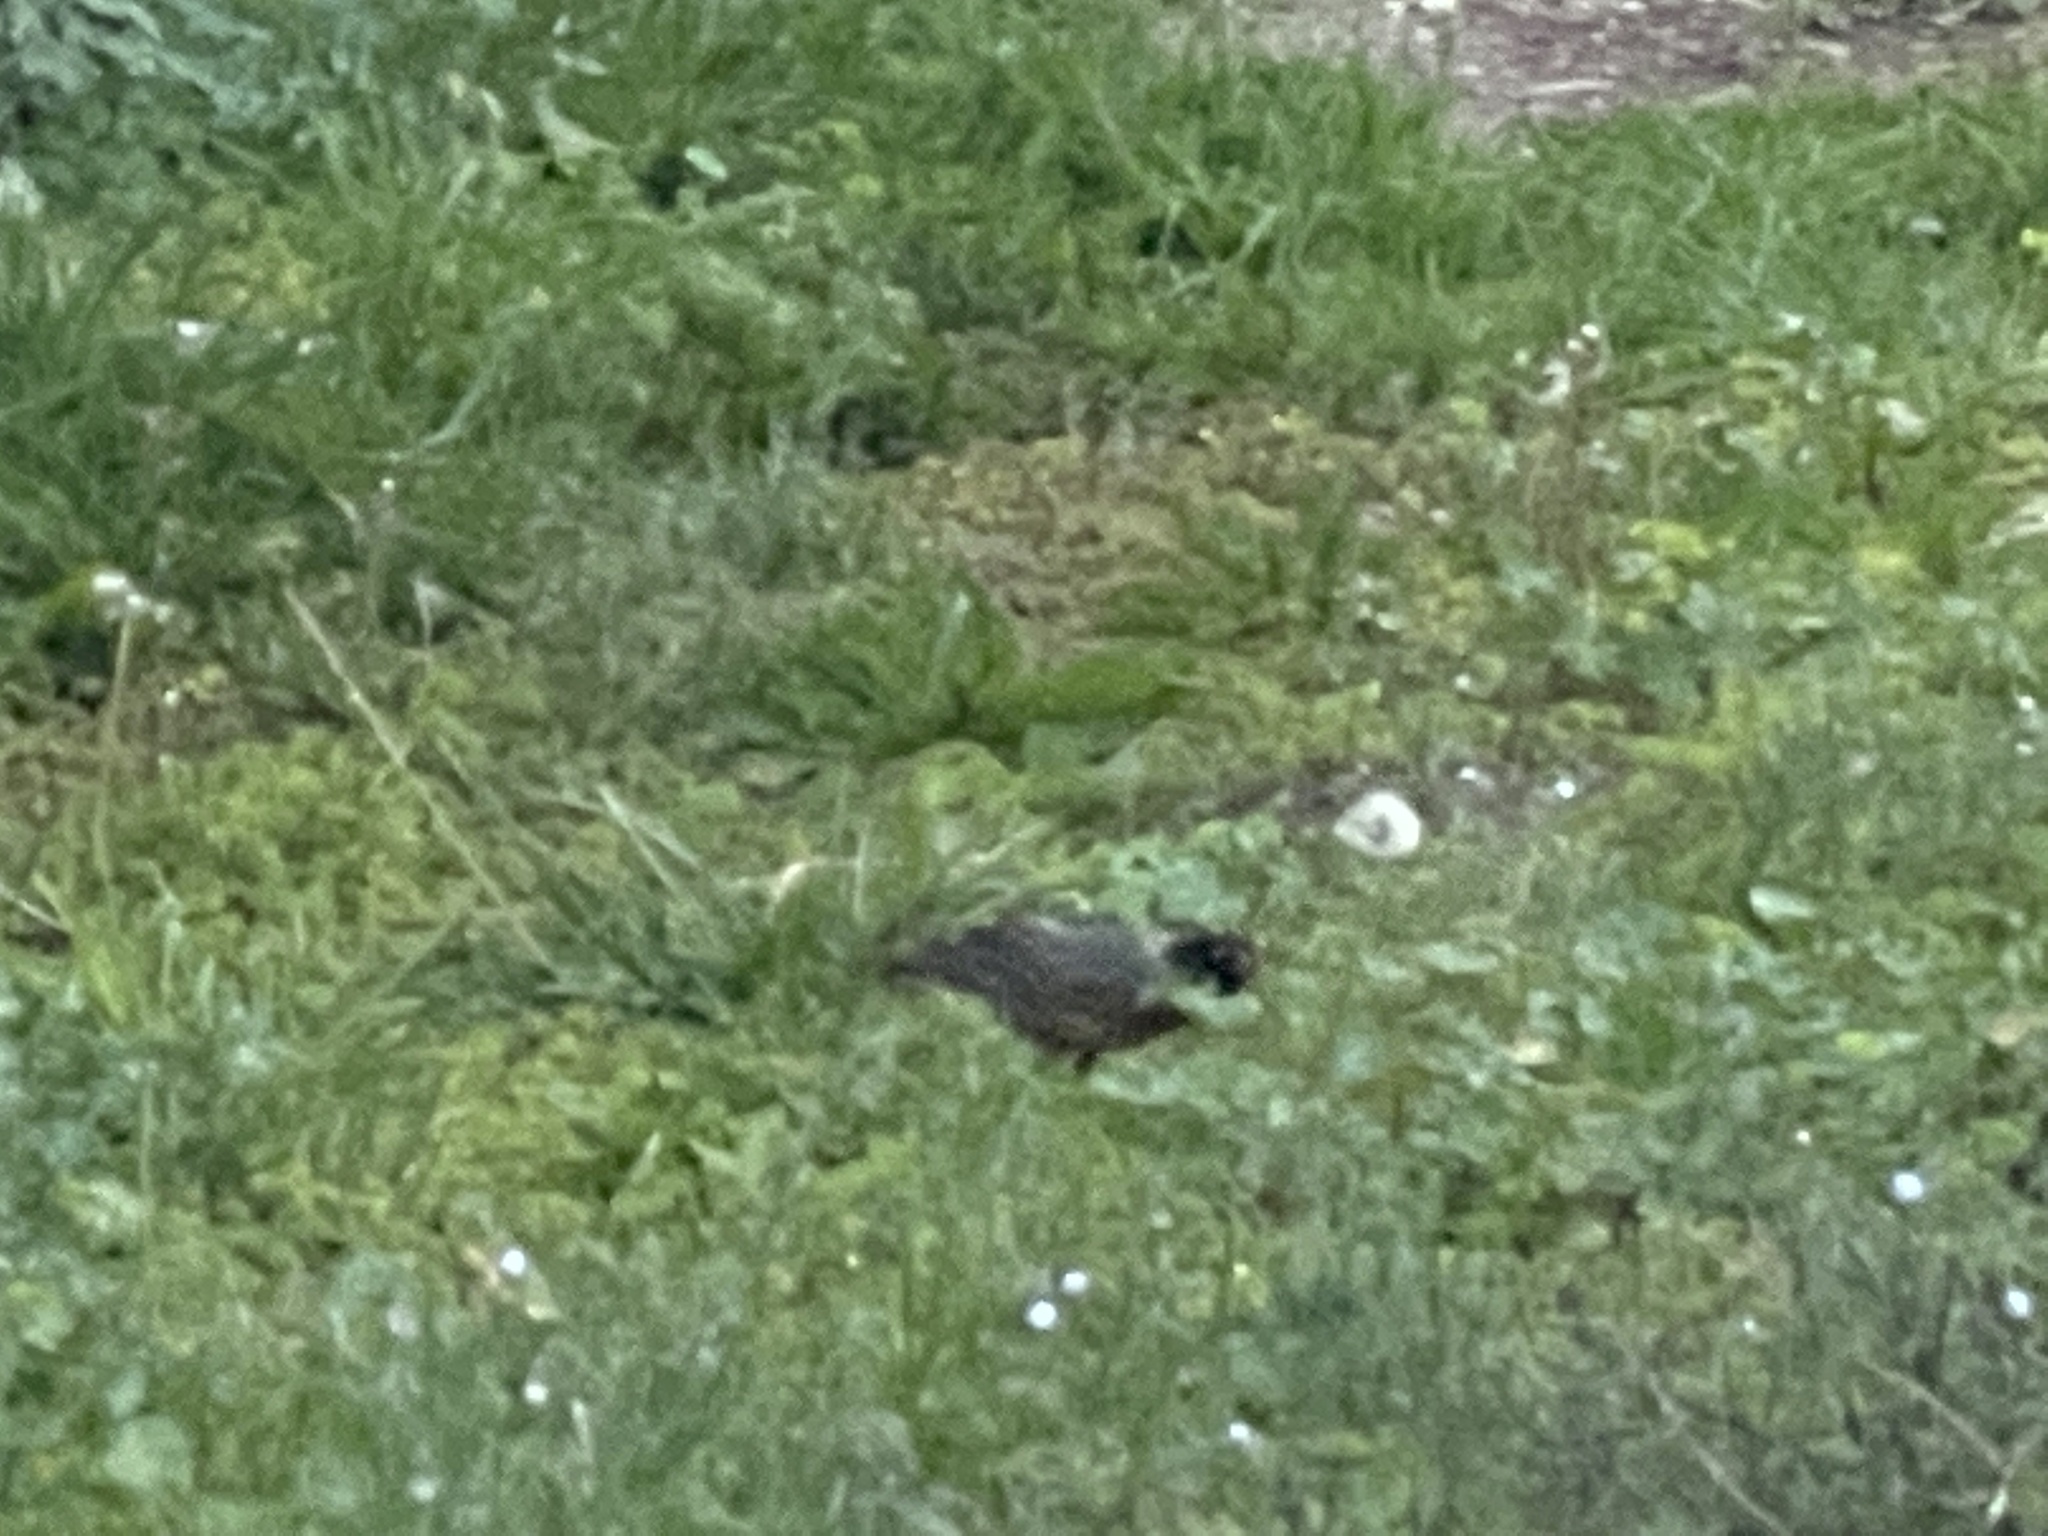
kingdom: Animalia
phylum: Chordata
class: Aves
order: Passeriformes
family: Turdidae
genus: Turdus
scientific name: Turdus migratorius
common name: American robin
